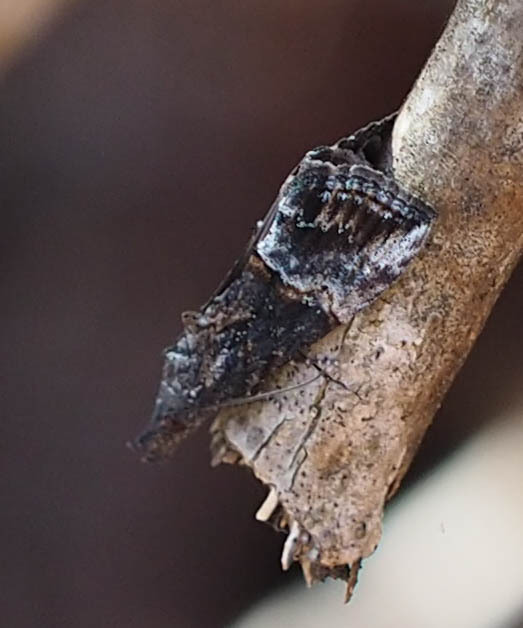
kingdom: Animalia
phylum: Arthropoda
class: Insecta
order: Lepidoptera
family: Erebidae
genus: Hypena
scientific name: Hypena scabra
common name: Green cloverworm
